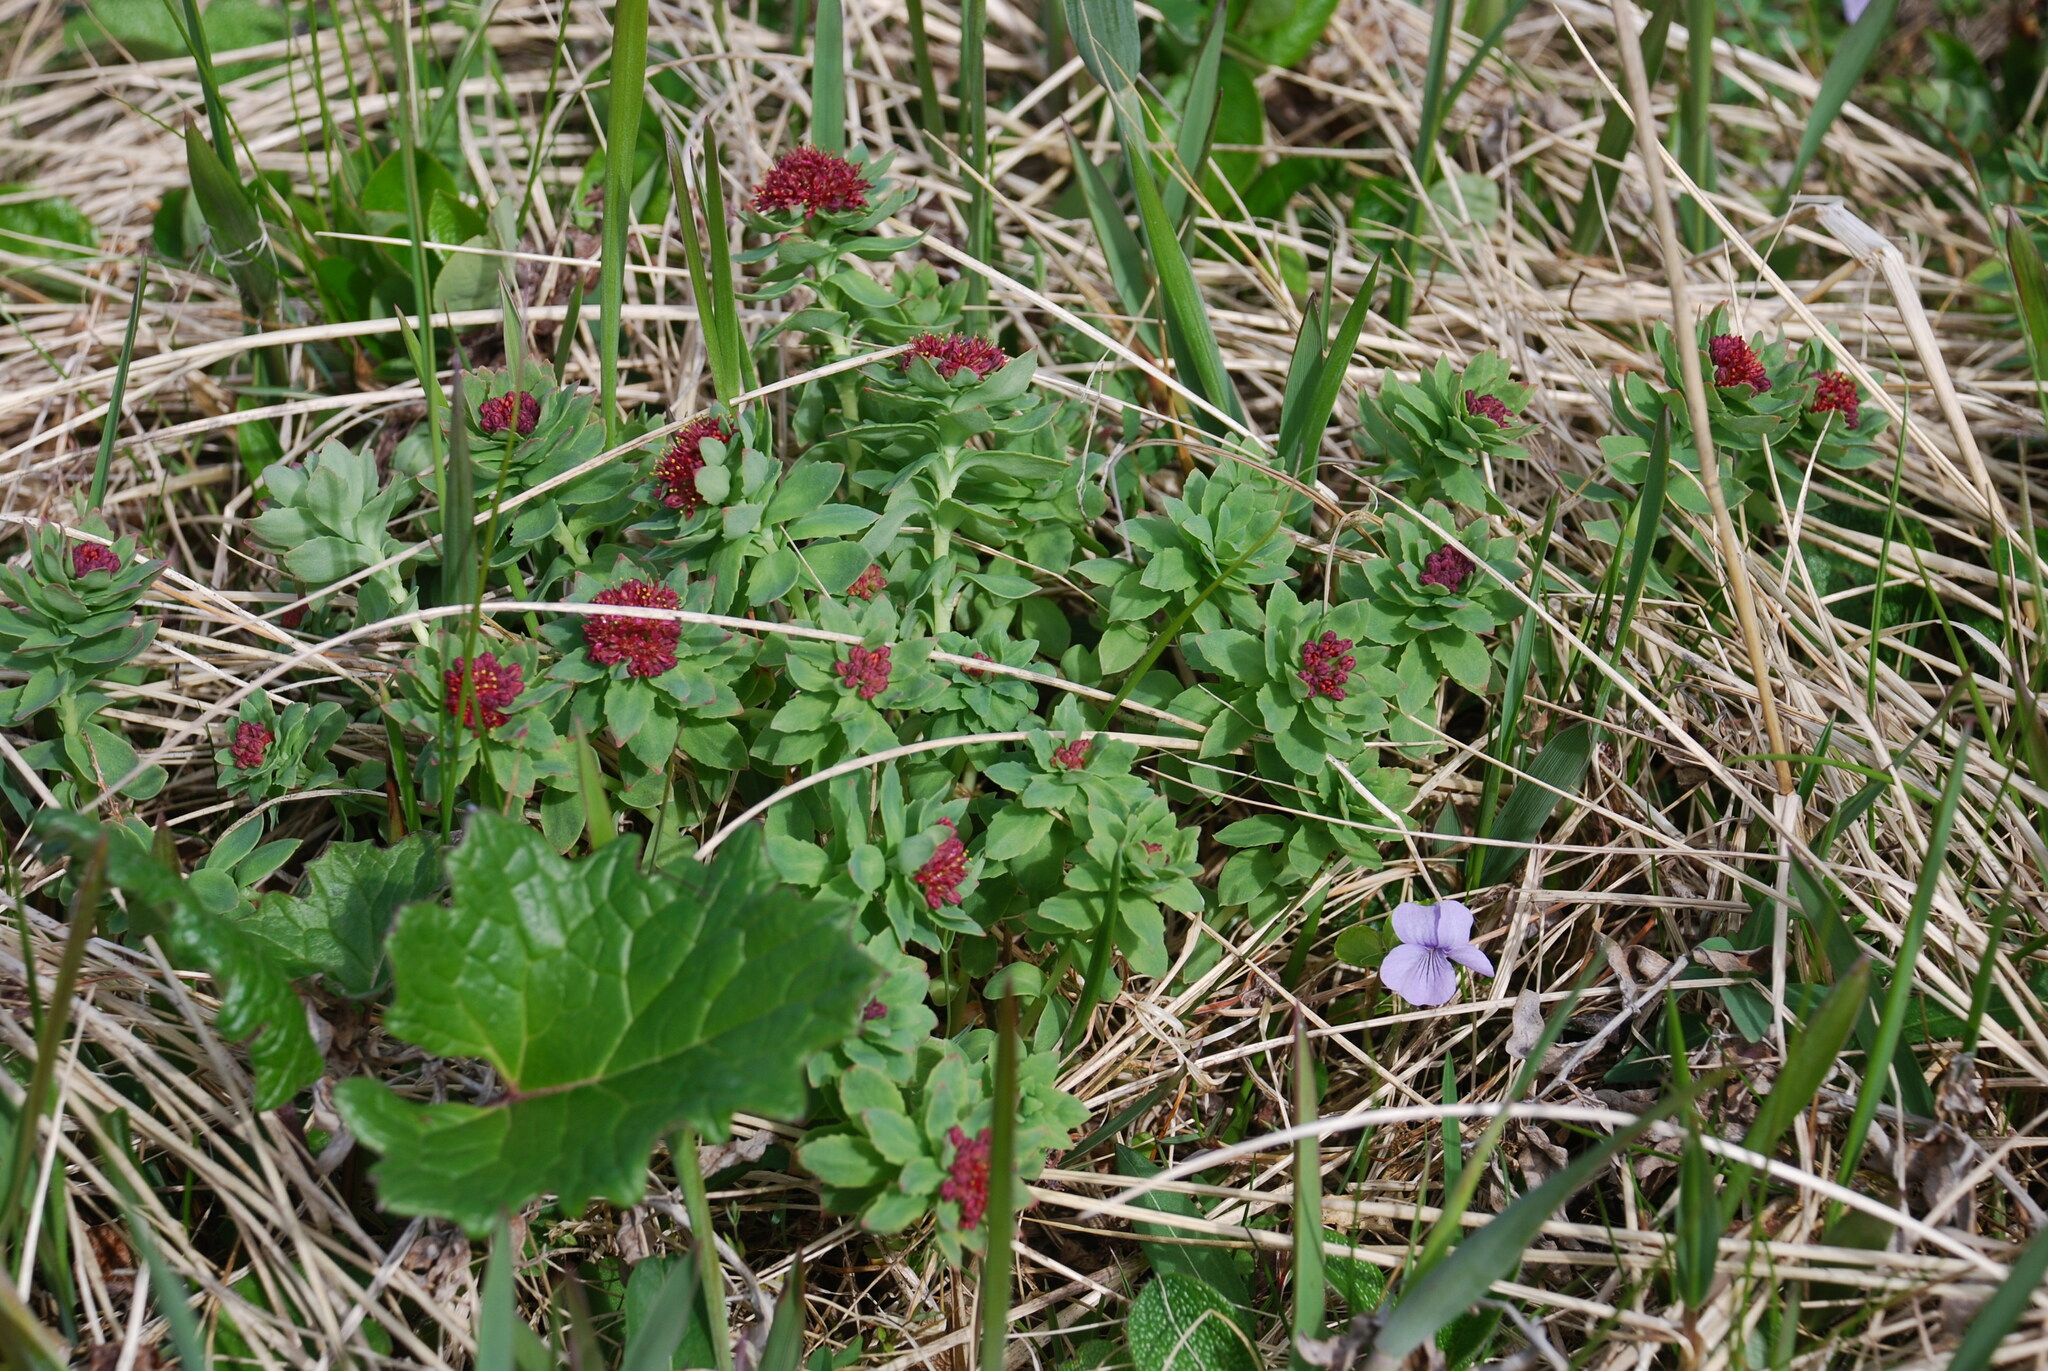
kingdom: Plantae
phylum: Tracheophyta
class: Magnoliopsida
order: Saxifragales
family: Crassulaceae
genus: Rhodiola
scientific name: Rhodiola integrifolia
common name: Western roseroot
